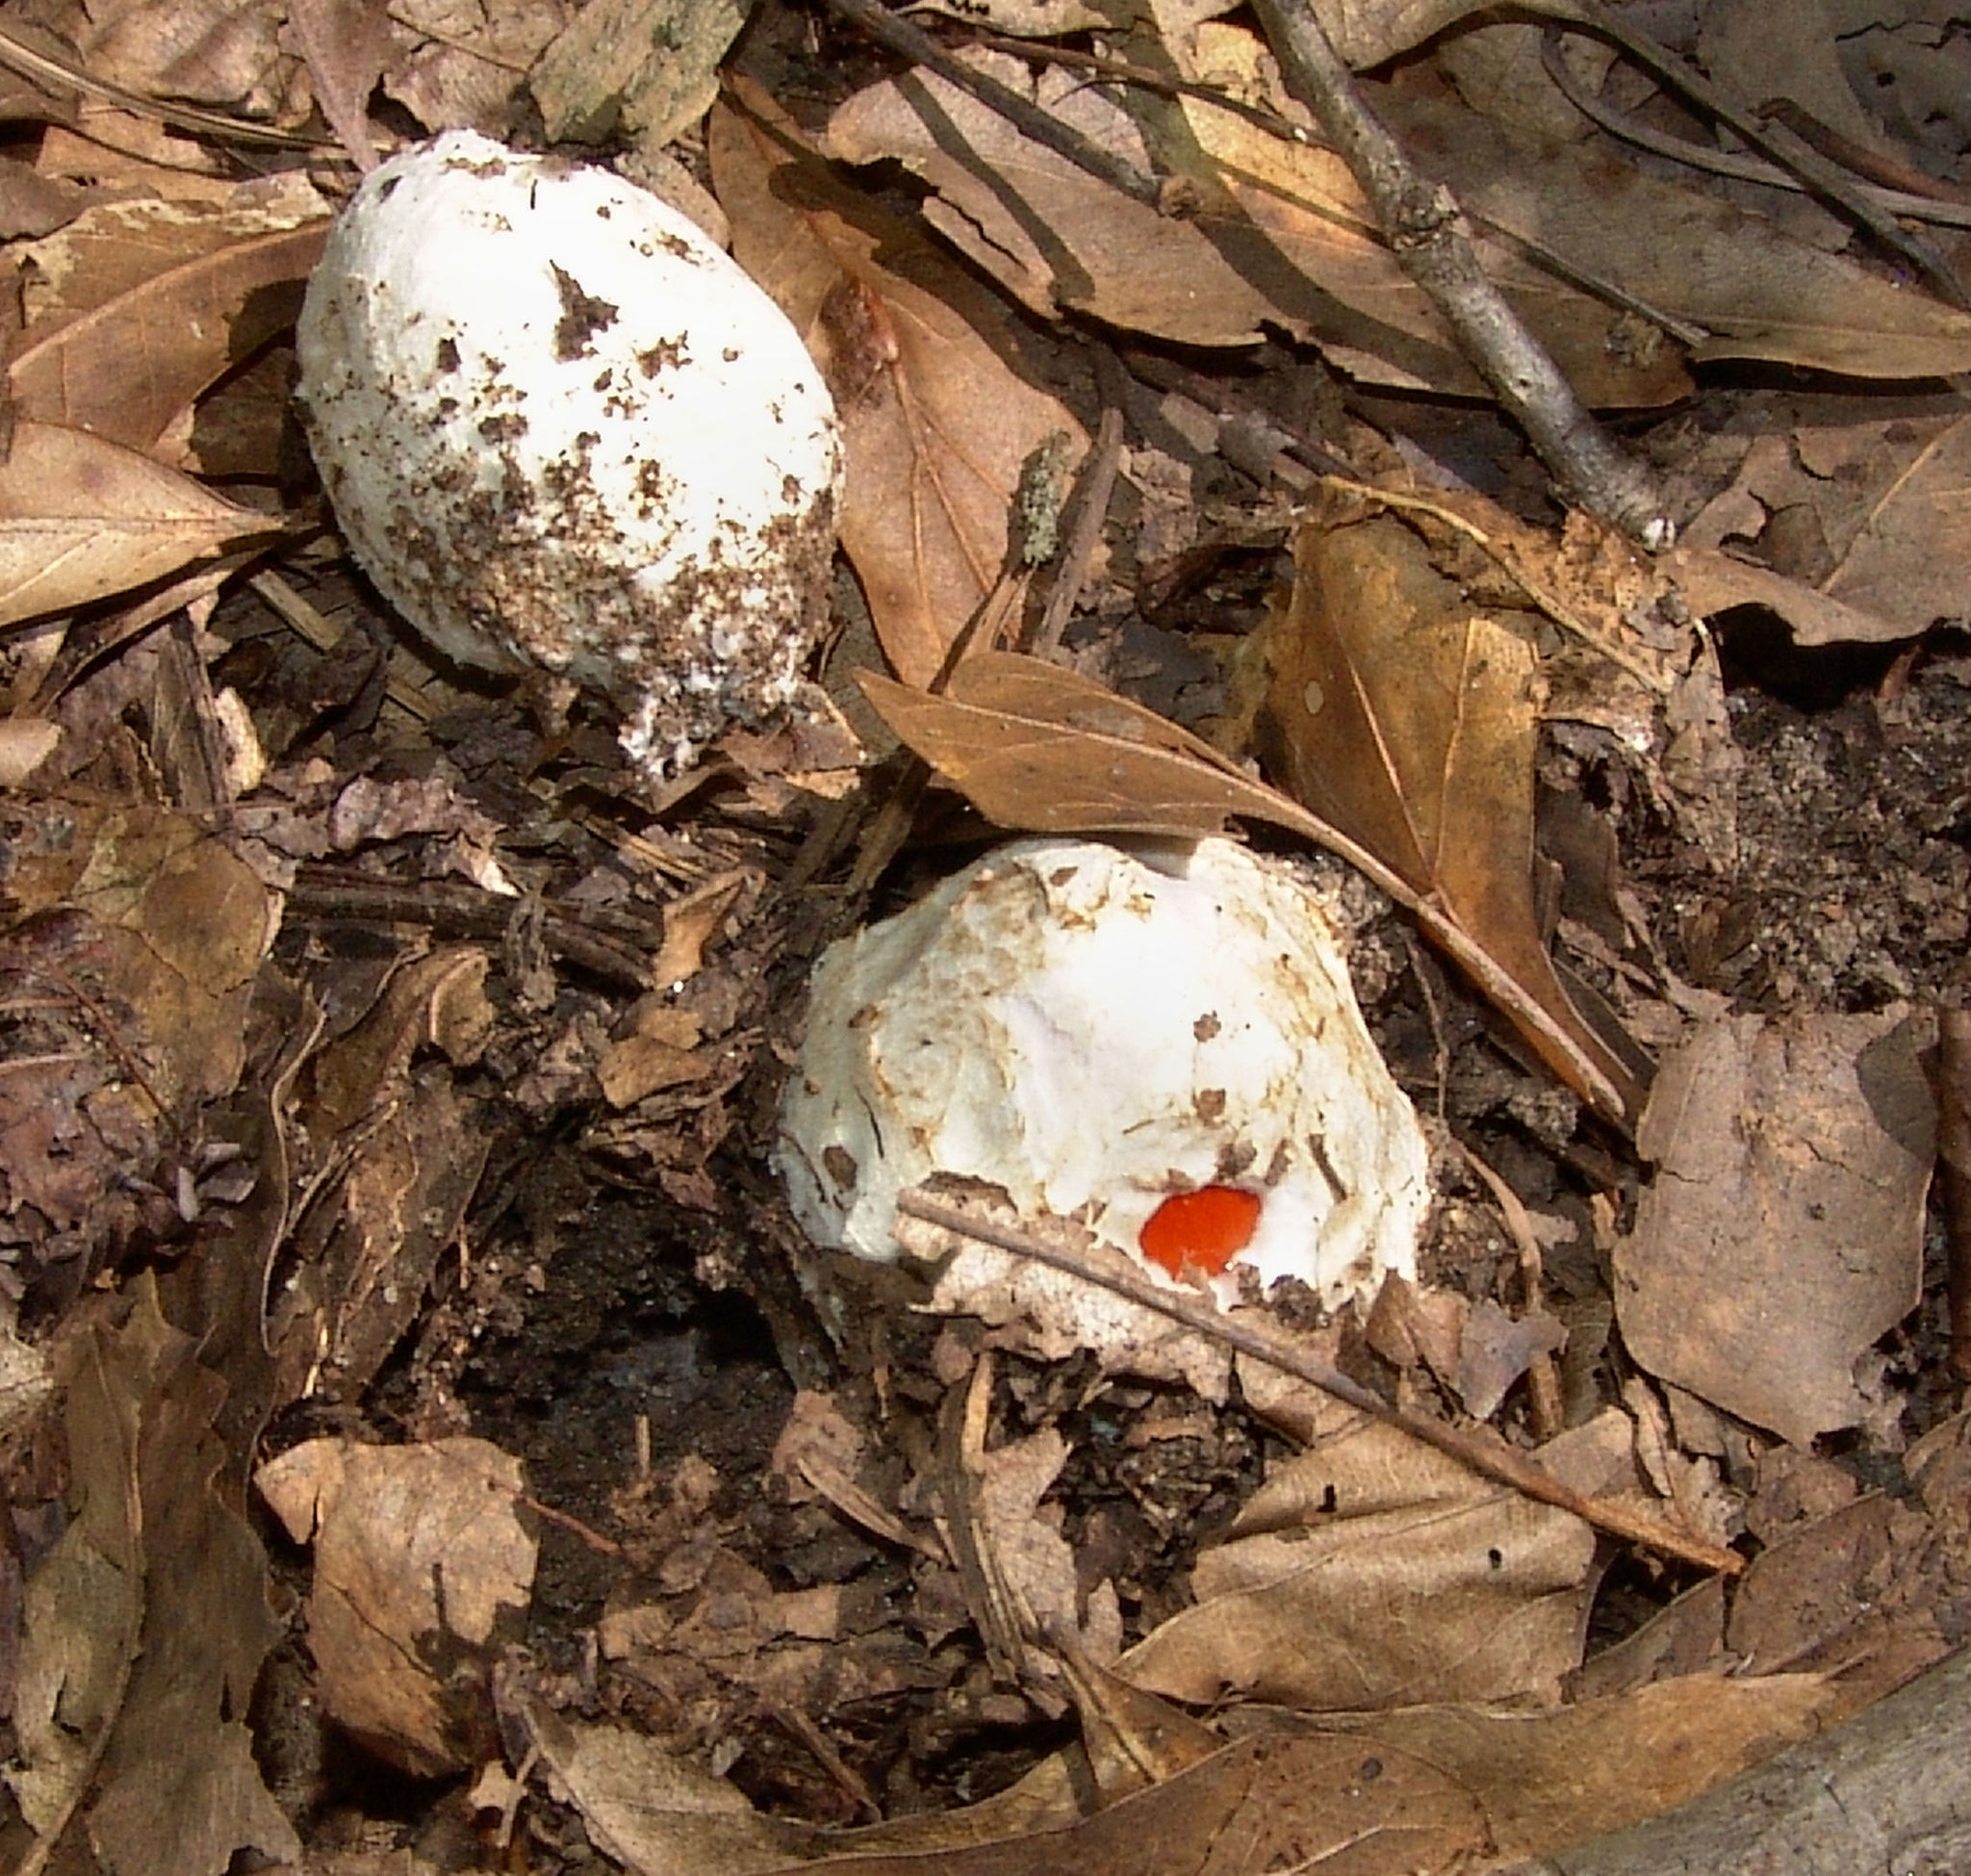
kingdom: Fungi
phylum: Basidiomycota
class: Agaricomycetes
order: Agaricales
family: Amanitaceae
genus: Amanita
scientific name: Amanita
